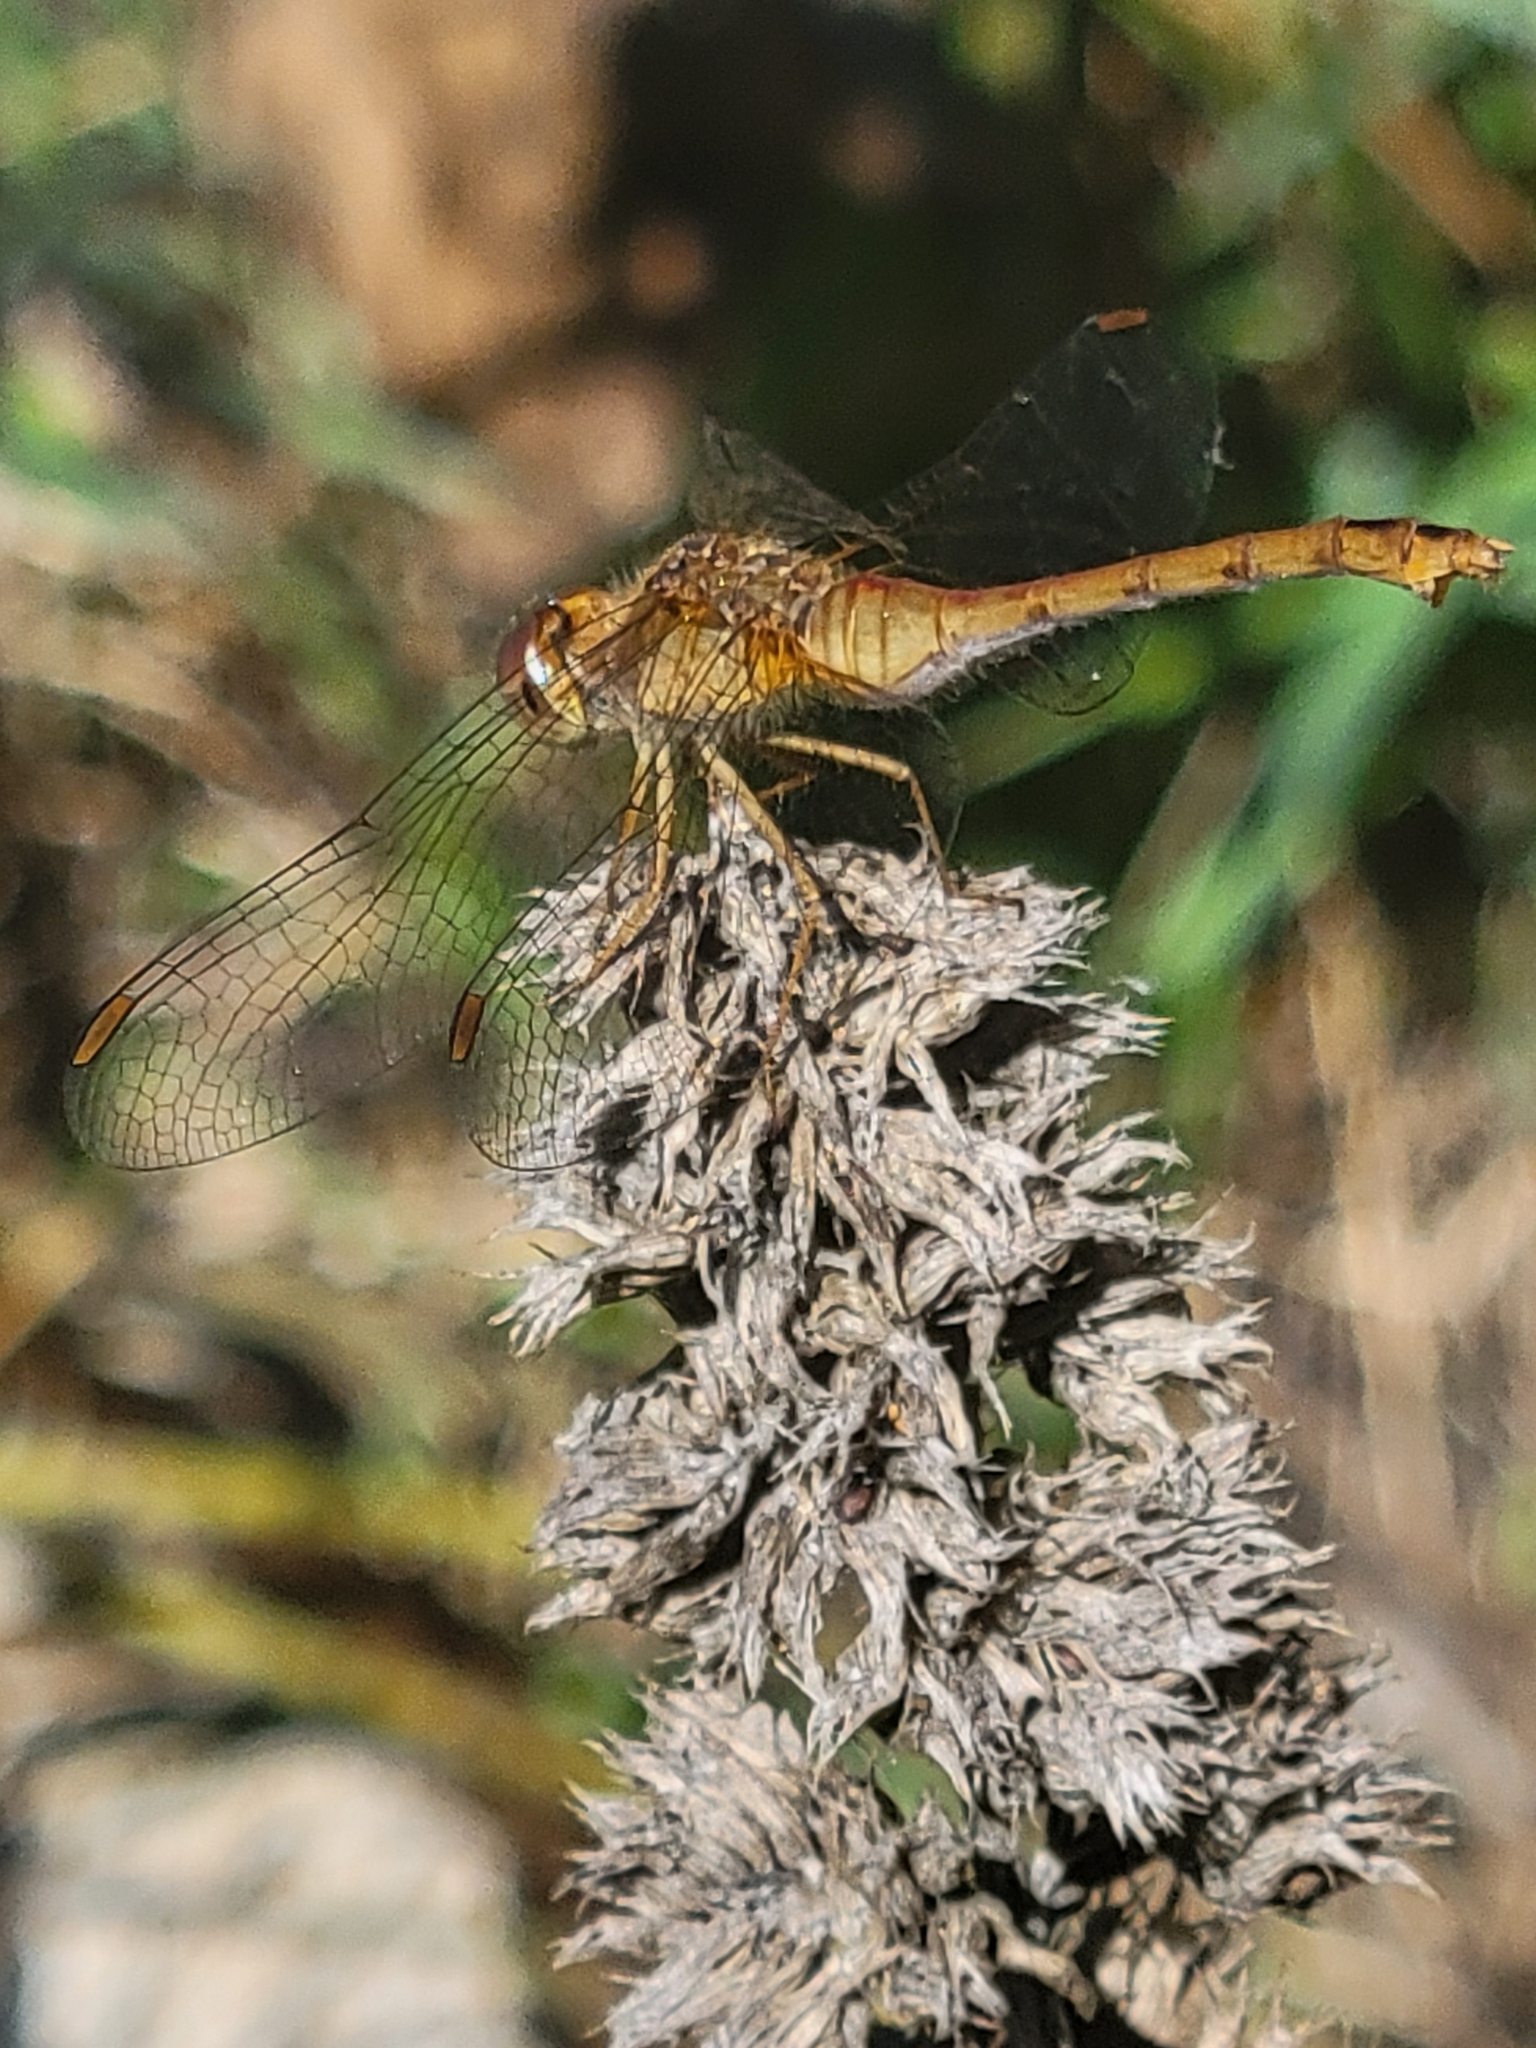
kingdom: Animalia
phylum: Arthropoda
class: Insecta
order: Odonata
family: Libellulidae
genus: Sympetrum
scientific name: Sympetrum vicinum
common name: Autumn meadowhawk
